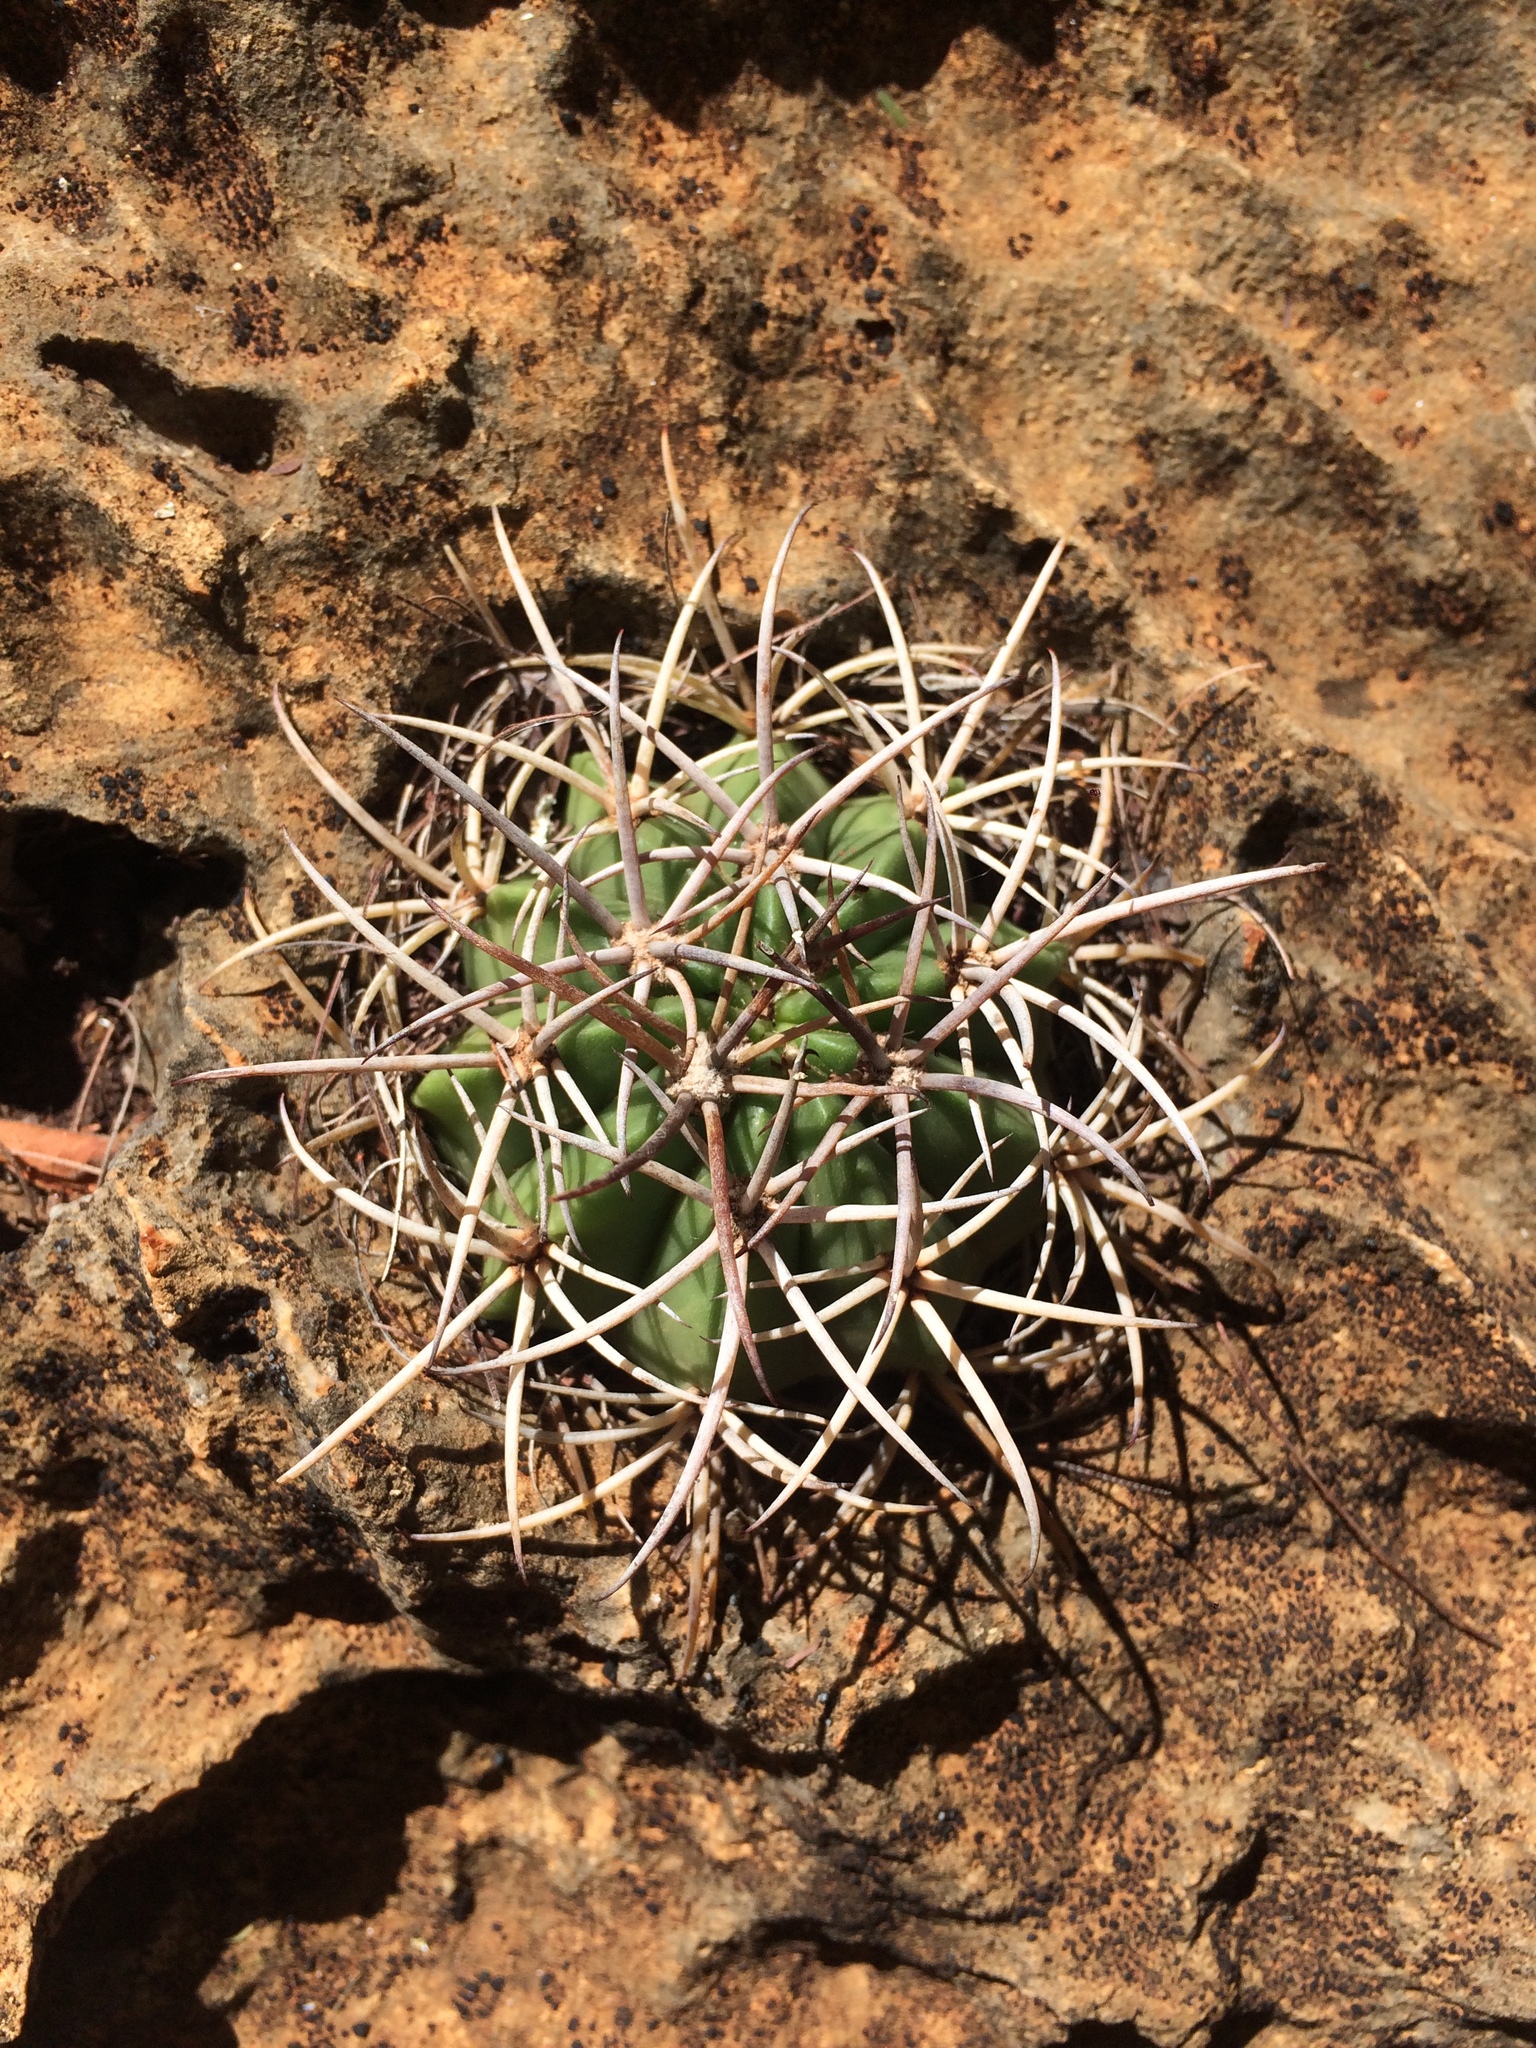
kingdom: Plantae
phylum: Tracheophyta
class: Magnoliopsida
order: Caryophyllales
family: Cactaceae
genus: Melocactus
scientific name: Melocactus pachyacanthus
